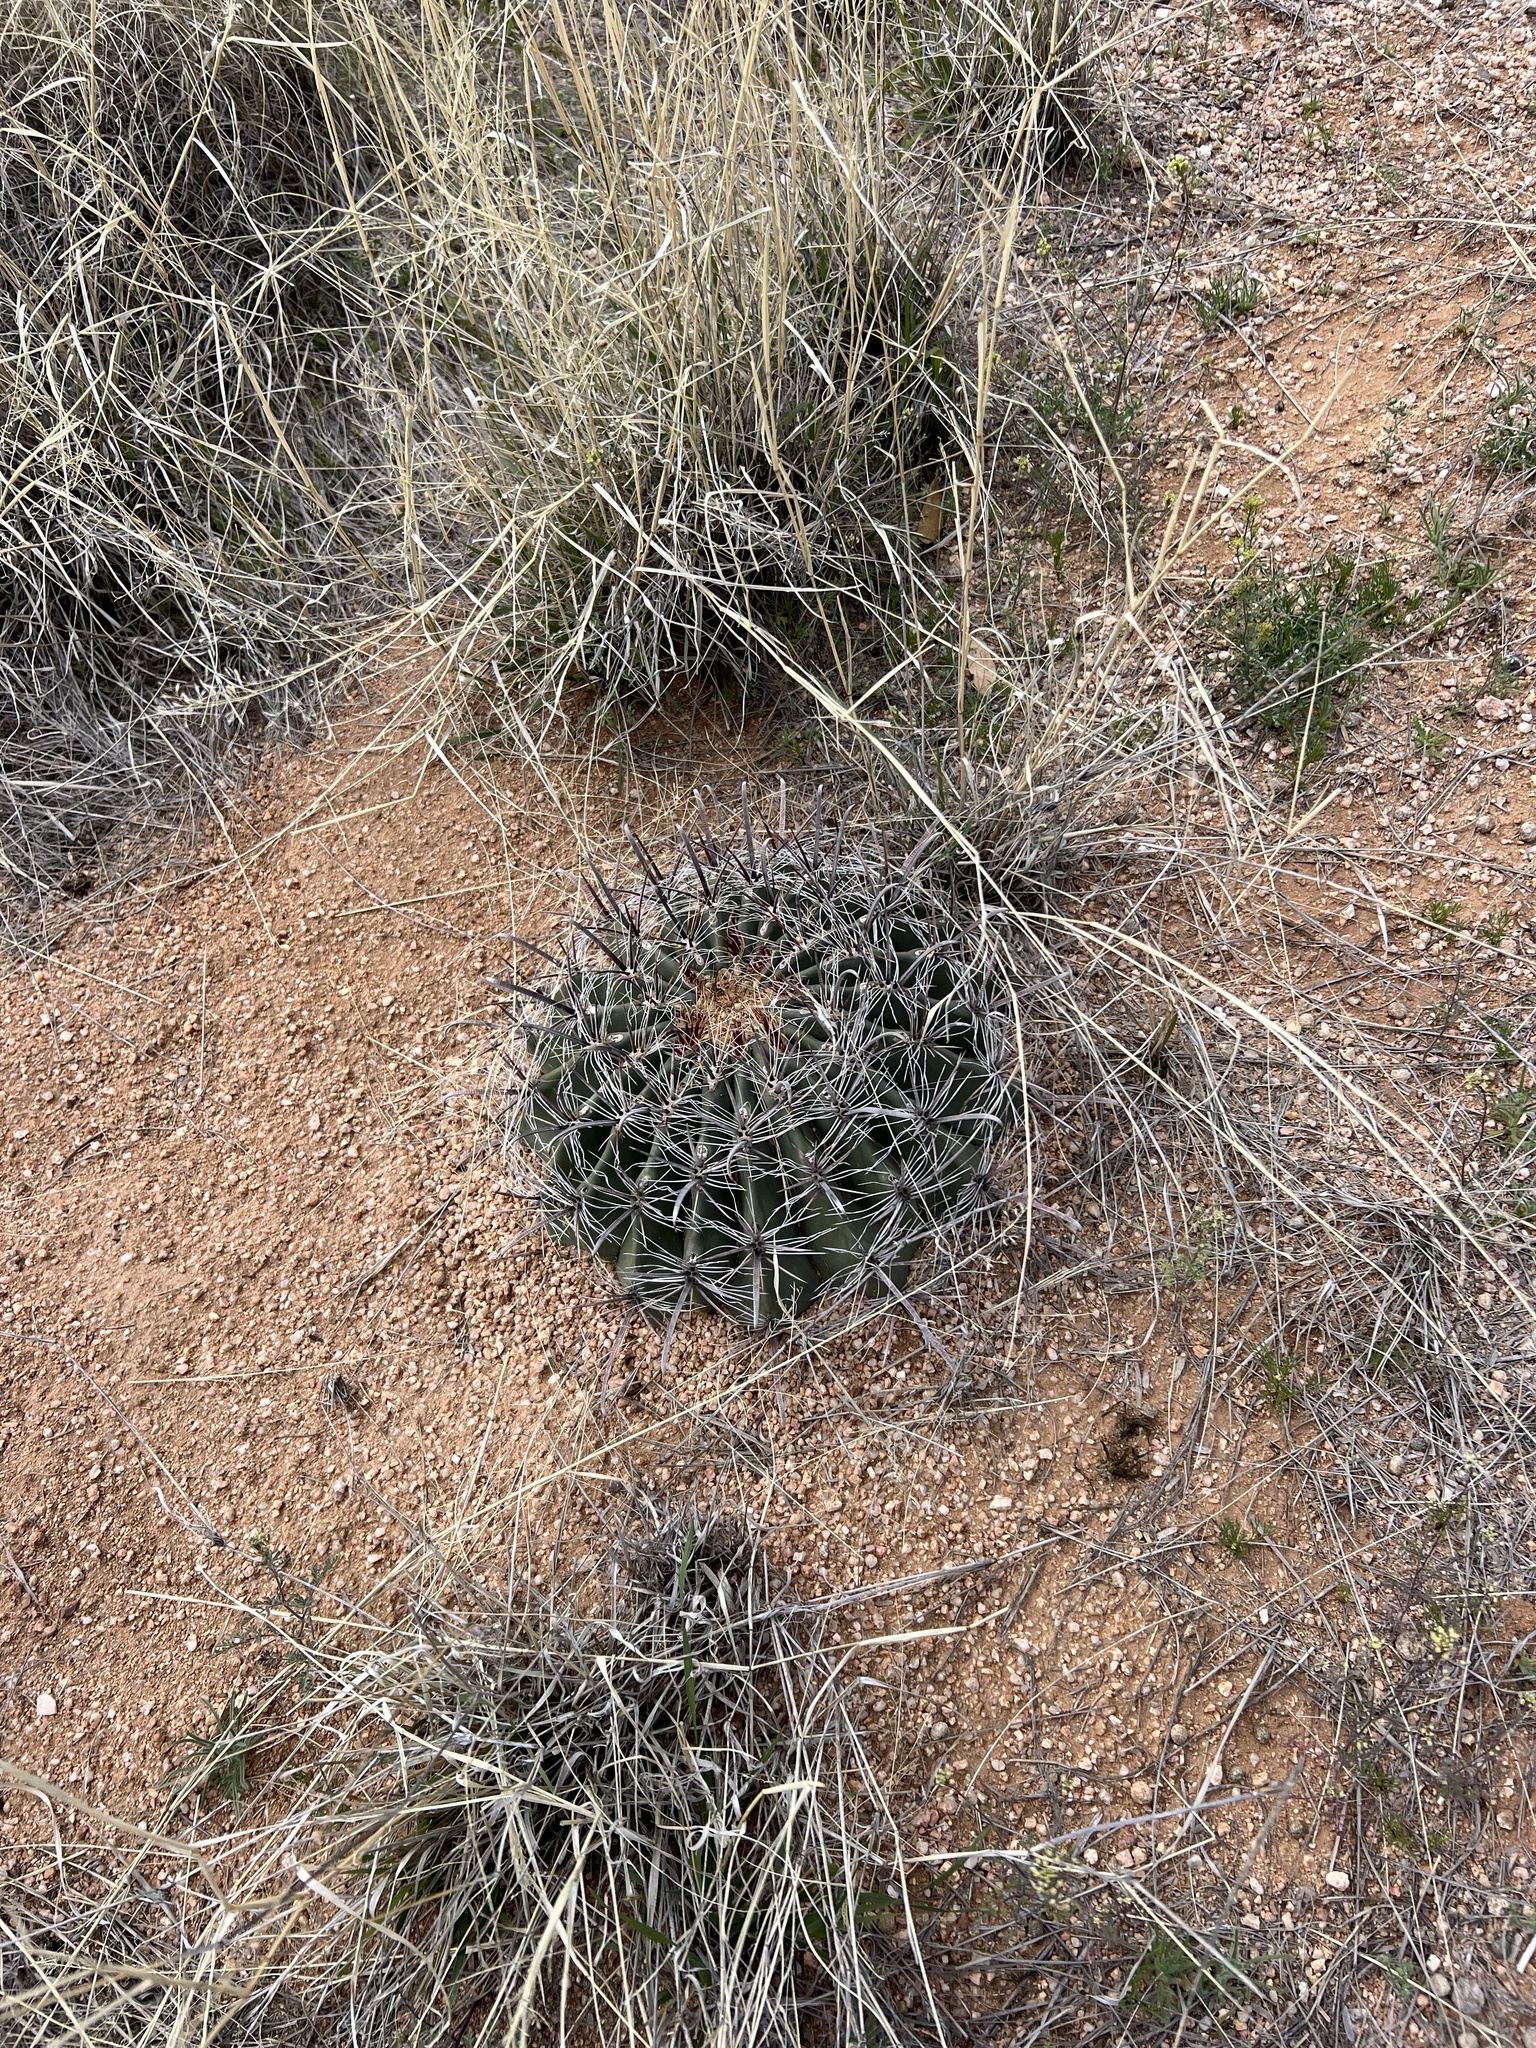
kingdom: Plantae
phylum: Tracheophyta
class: Magnoliopsida
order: Caryophyllales
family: Cactaceae
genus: Ferocactus
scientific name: Ferocactus wislizeni
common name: Candy barrel cactus
